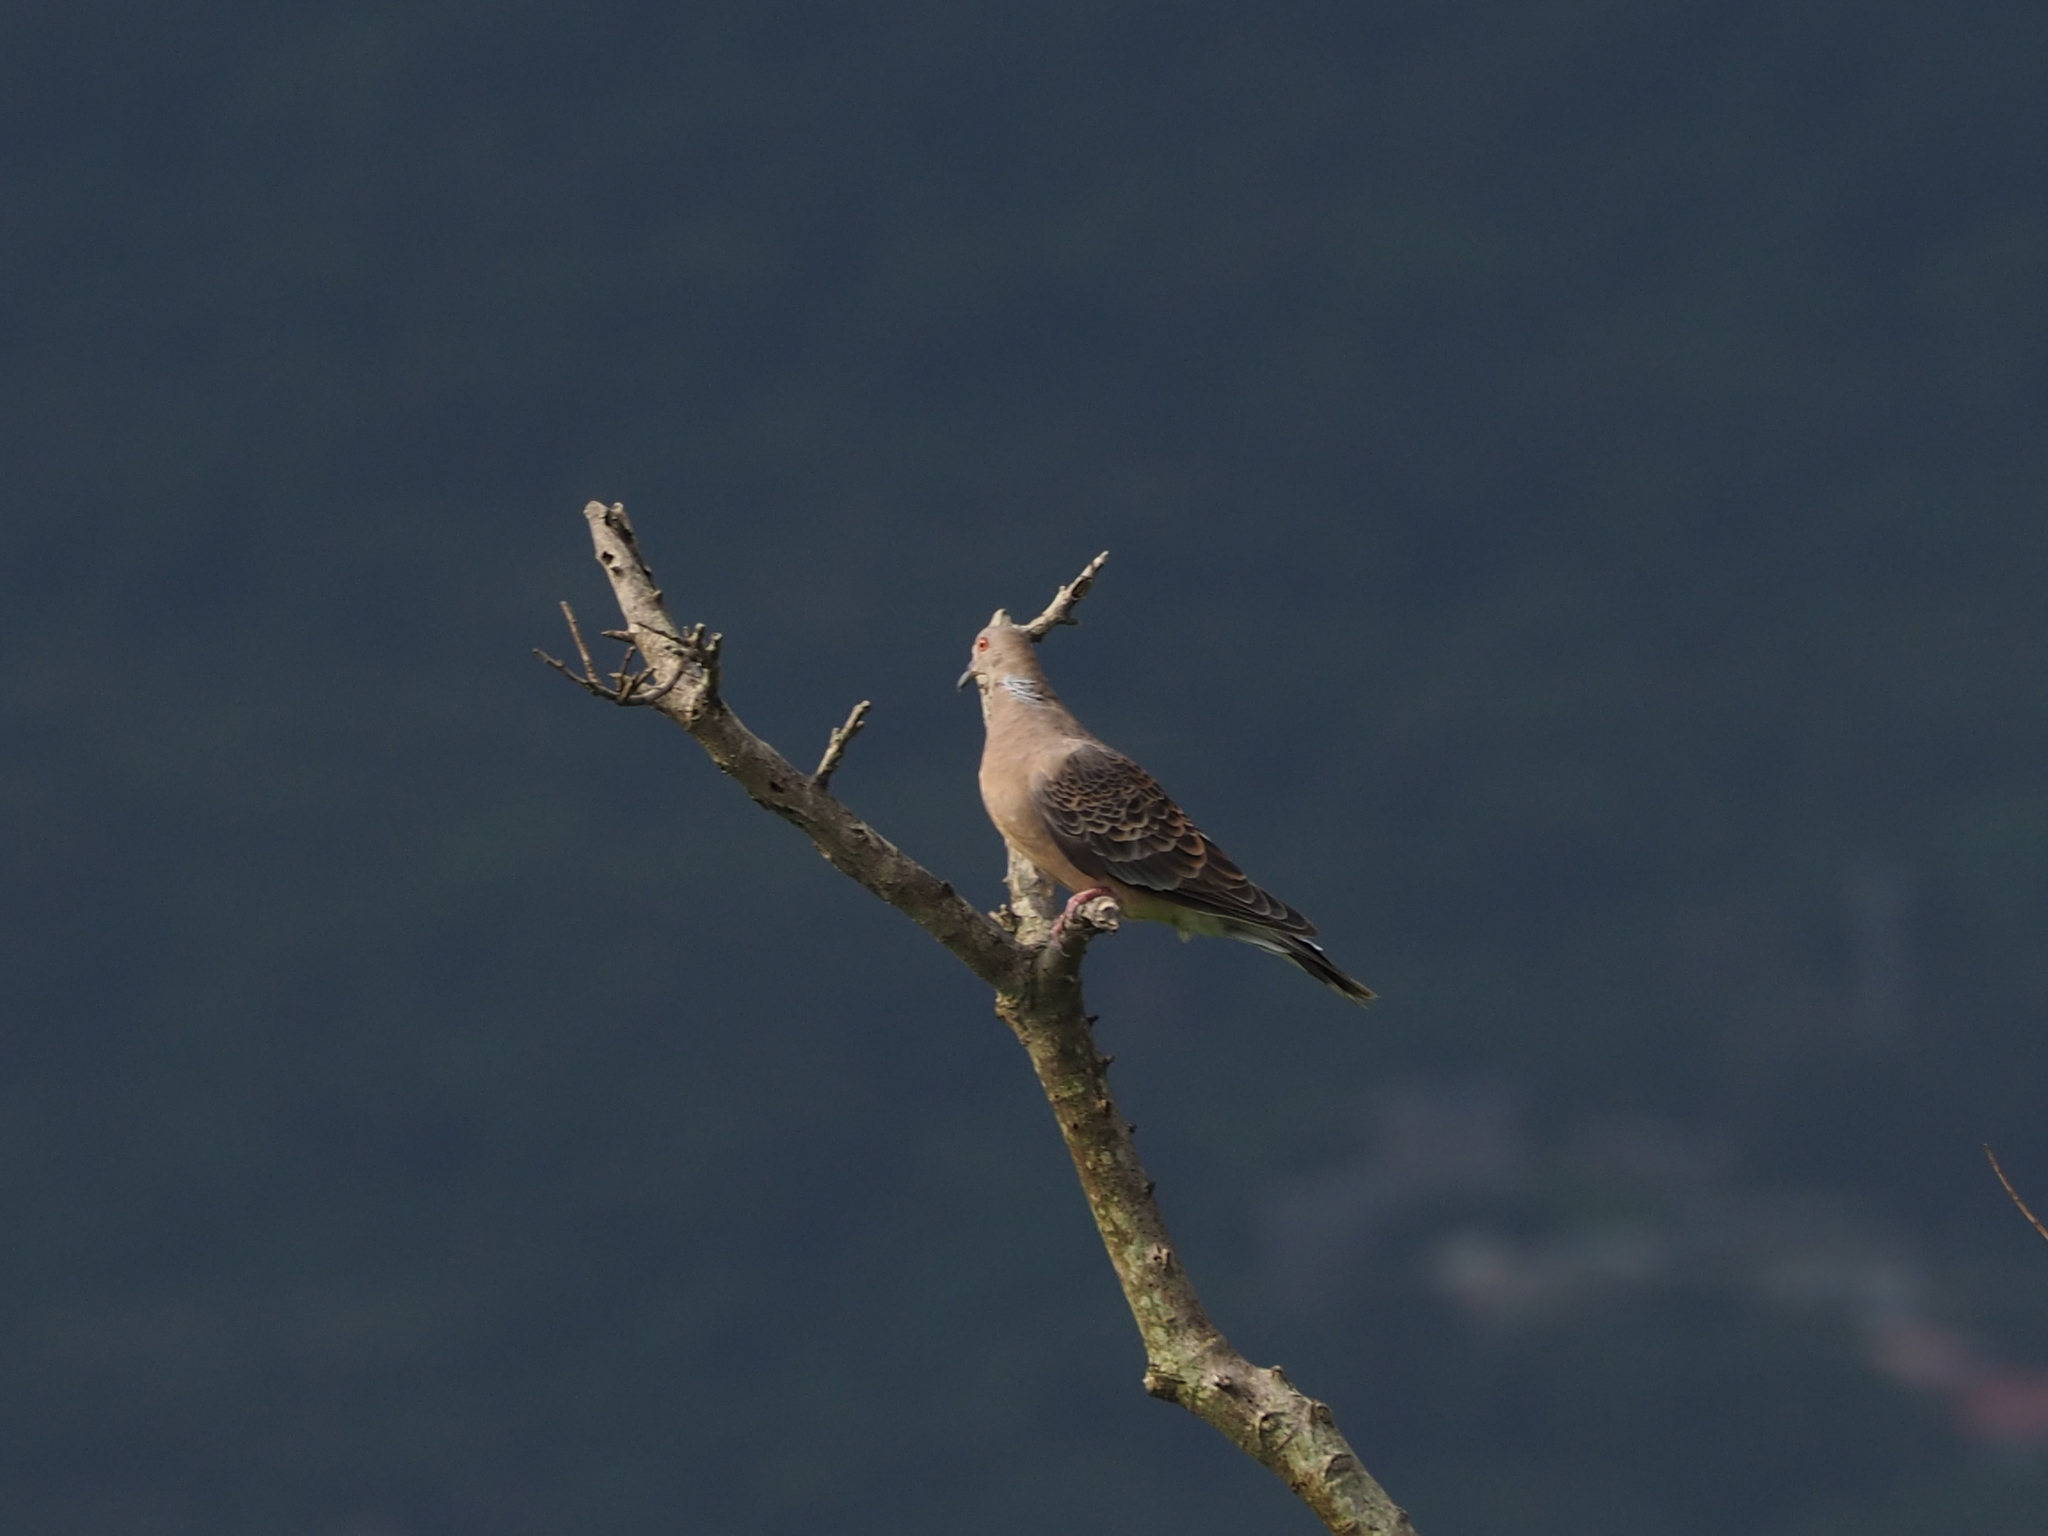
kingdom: Animalia
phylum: Chordata
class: Aves
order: Columbiformes
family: Columbidae
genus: Streptopelia
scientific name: Streptopelia orientalis
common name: Oriental turtle dove
